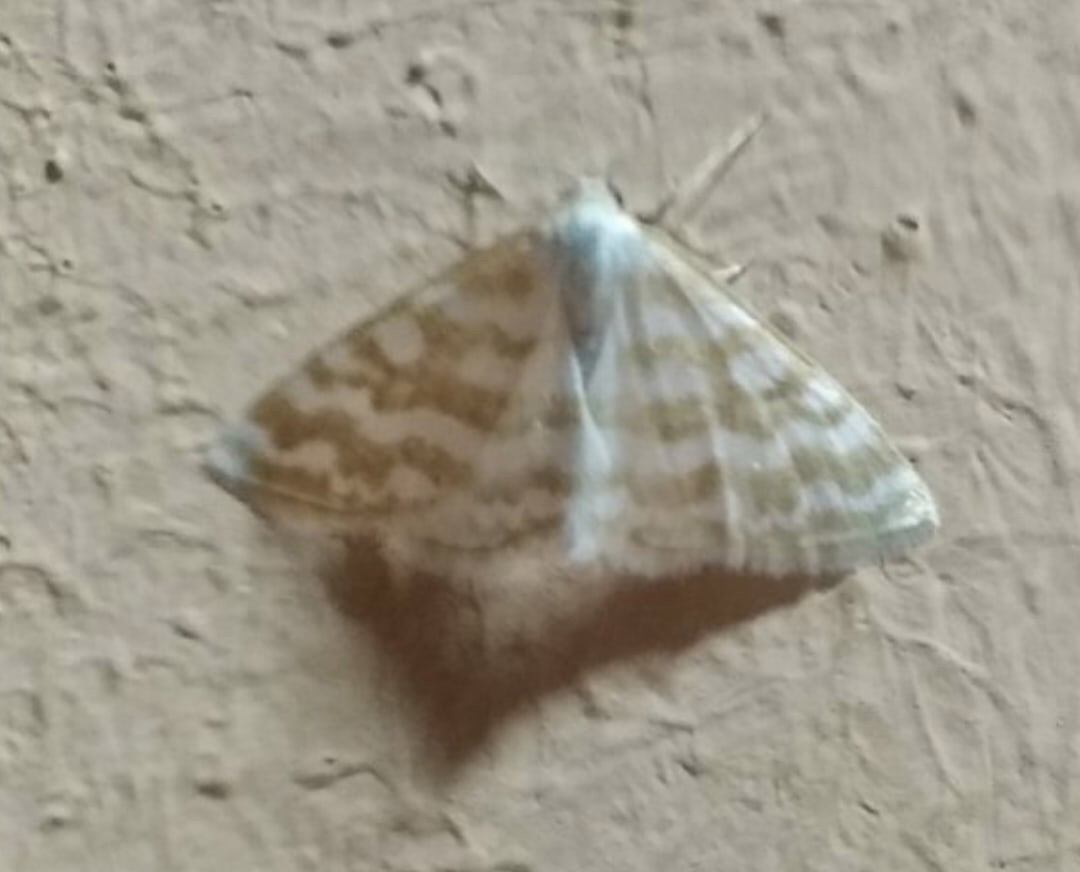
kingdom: Animalia
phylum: Arthropoda
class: Insecta
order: Lepidoptera
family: Geometridae
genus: Idaea
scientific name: Idaea sericeata
